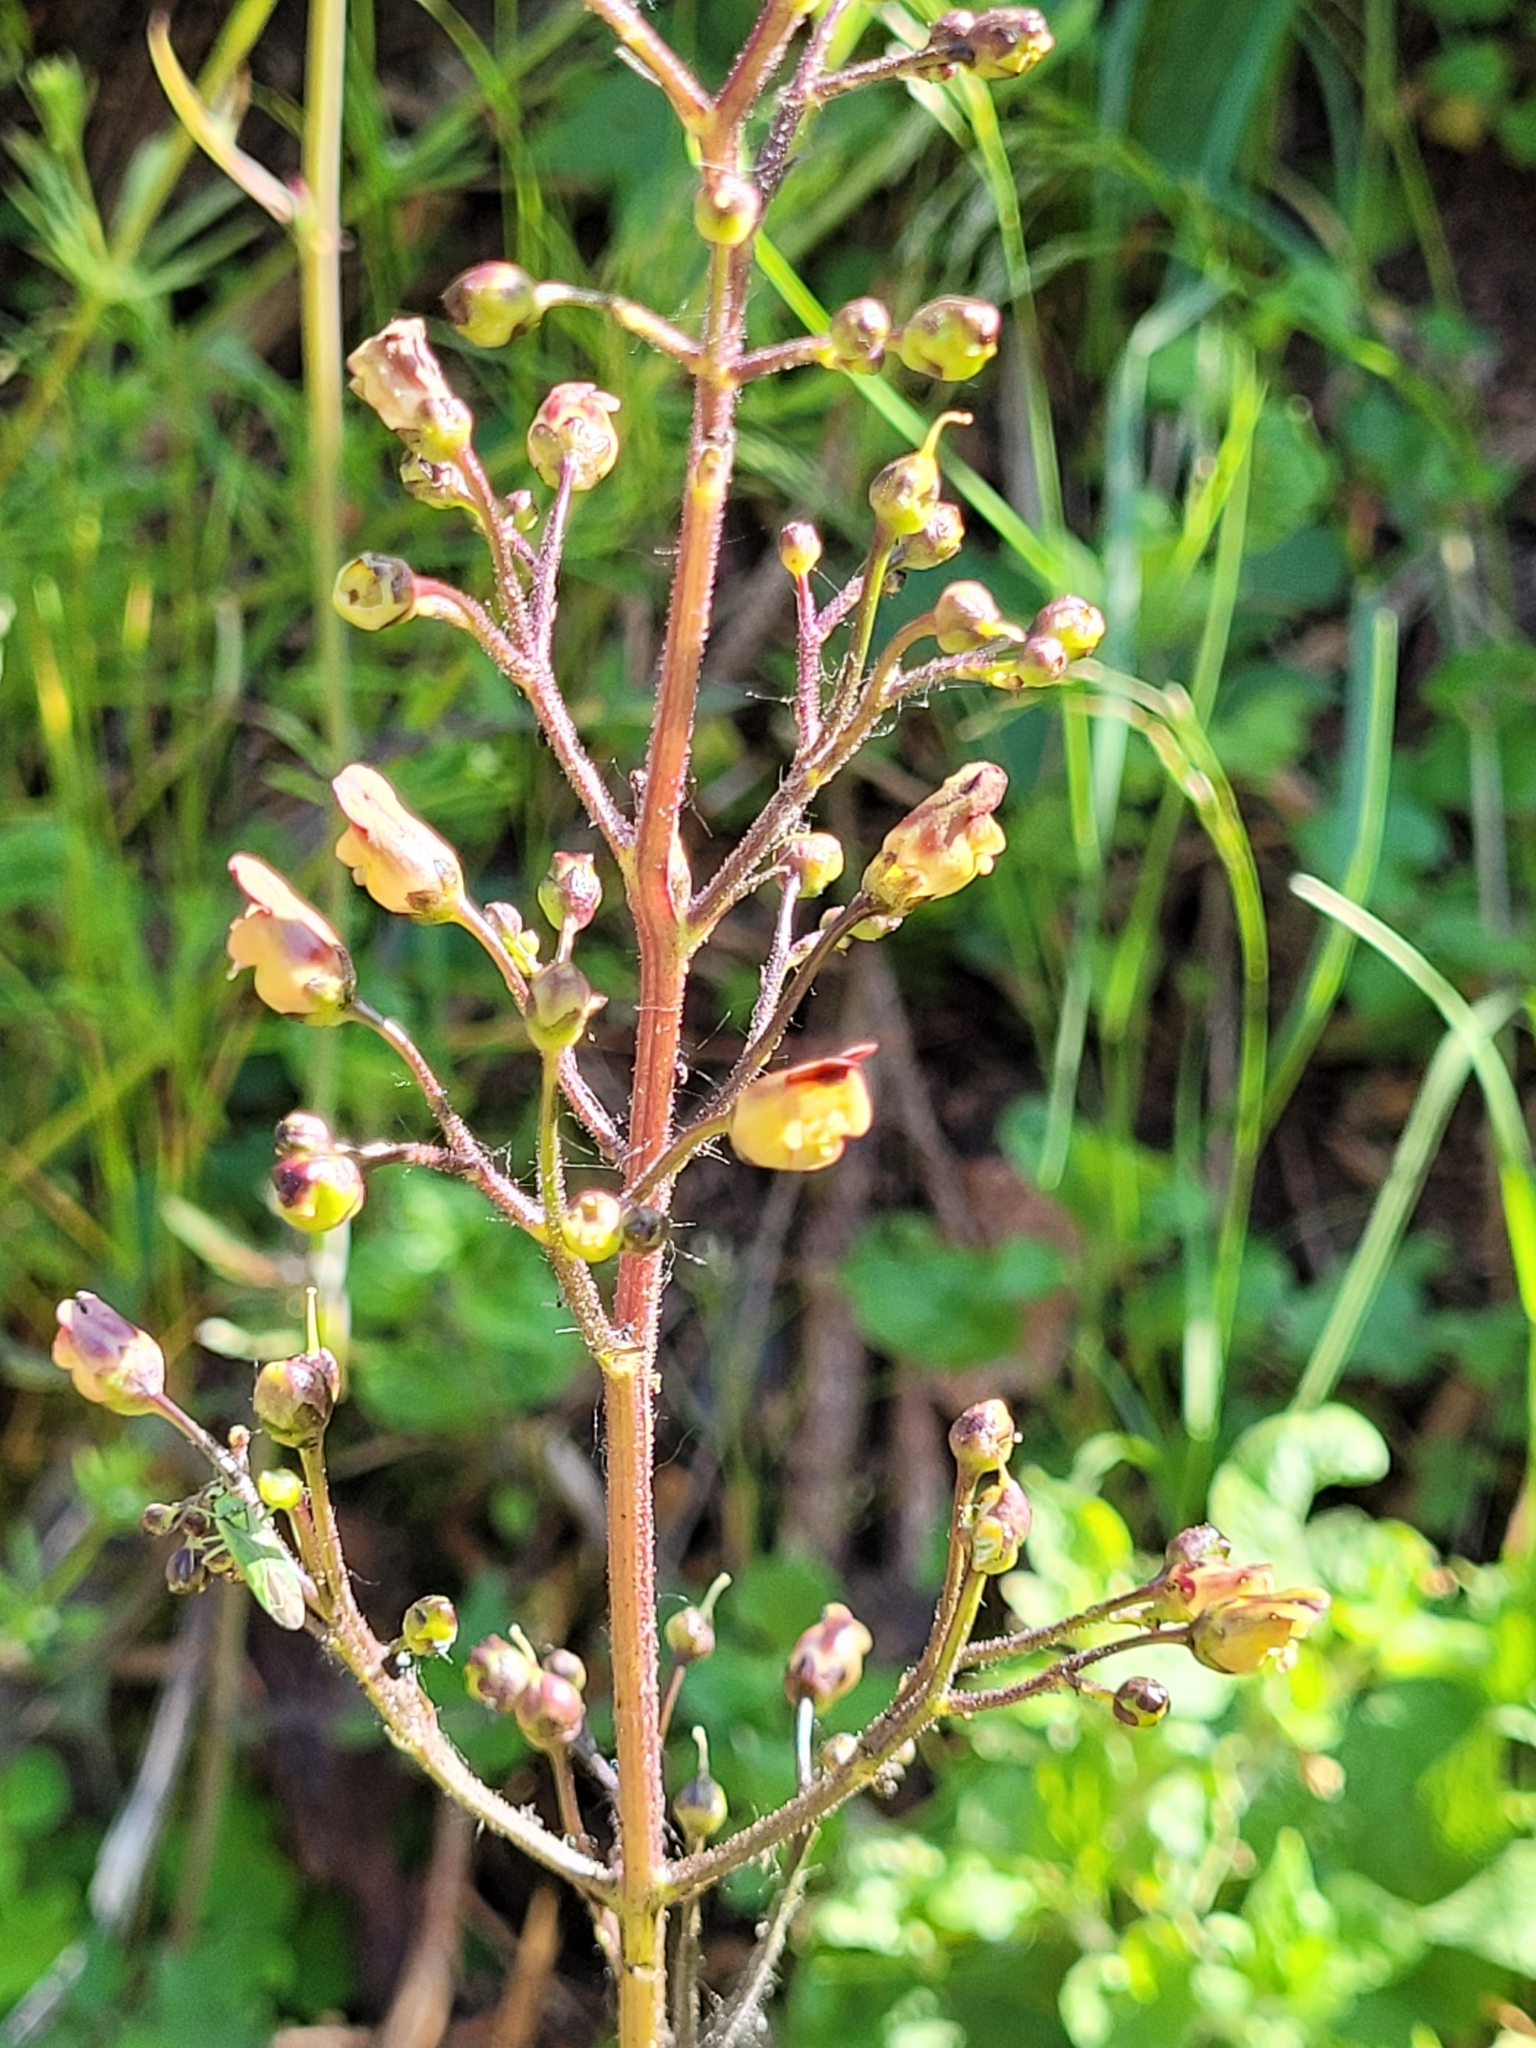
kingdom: Plantae
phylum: Tracheophyta
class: Magnoliopsida
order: Lamiales
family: Scrophulariaceae
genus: Scrophularia
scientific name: Scrophularia nodosa
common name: Common figwort
